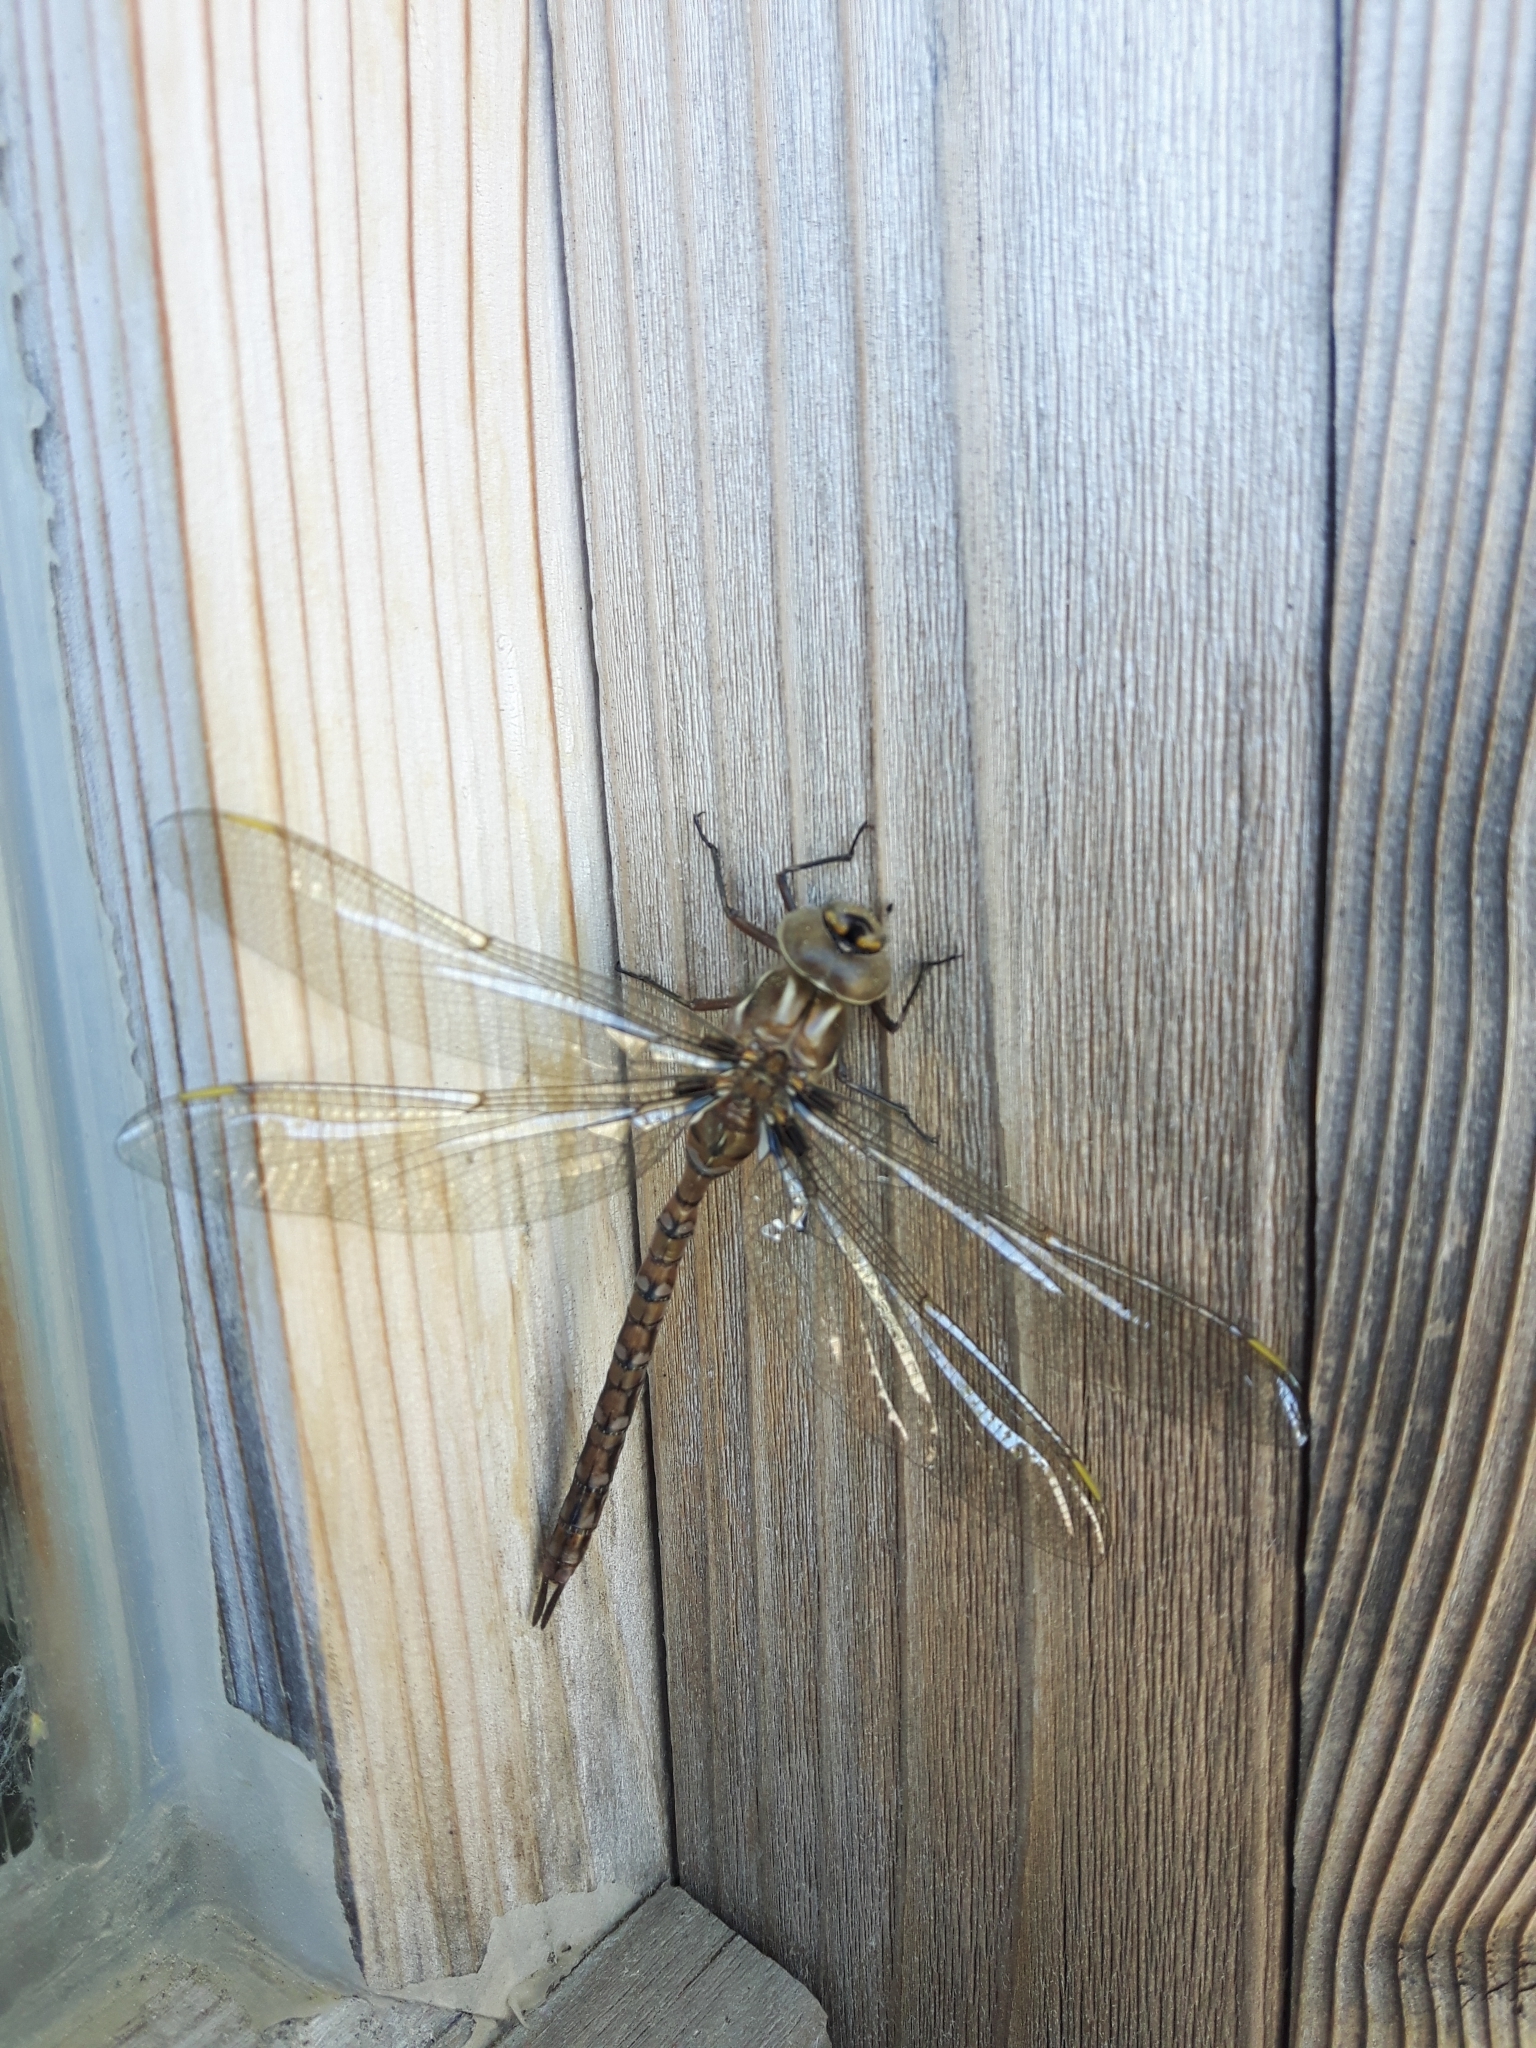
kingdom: Animalia
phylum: Arthropoda
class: Insecta
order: Odonata
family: Aeshnidae
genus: Basiaeschna
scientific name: Basiaeschna janata
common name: Springtime darner
